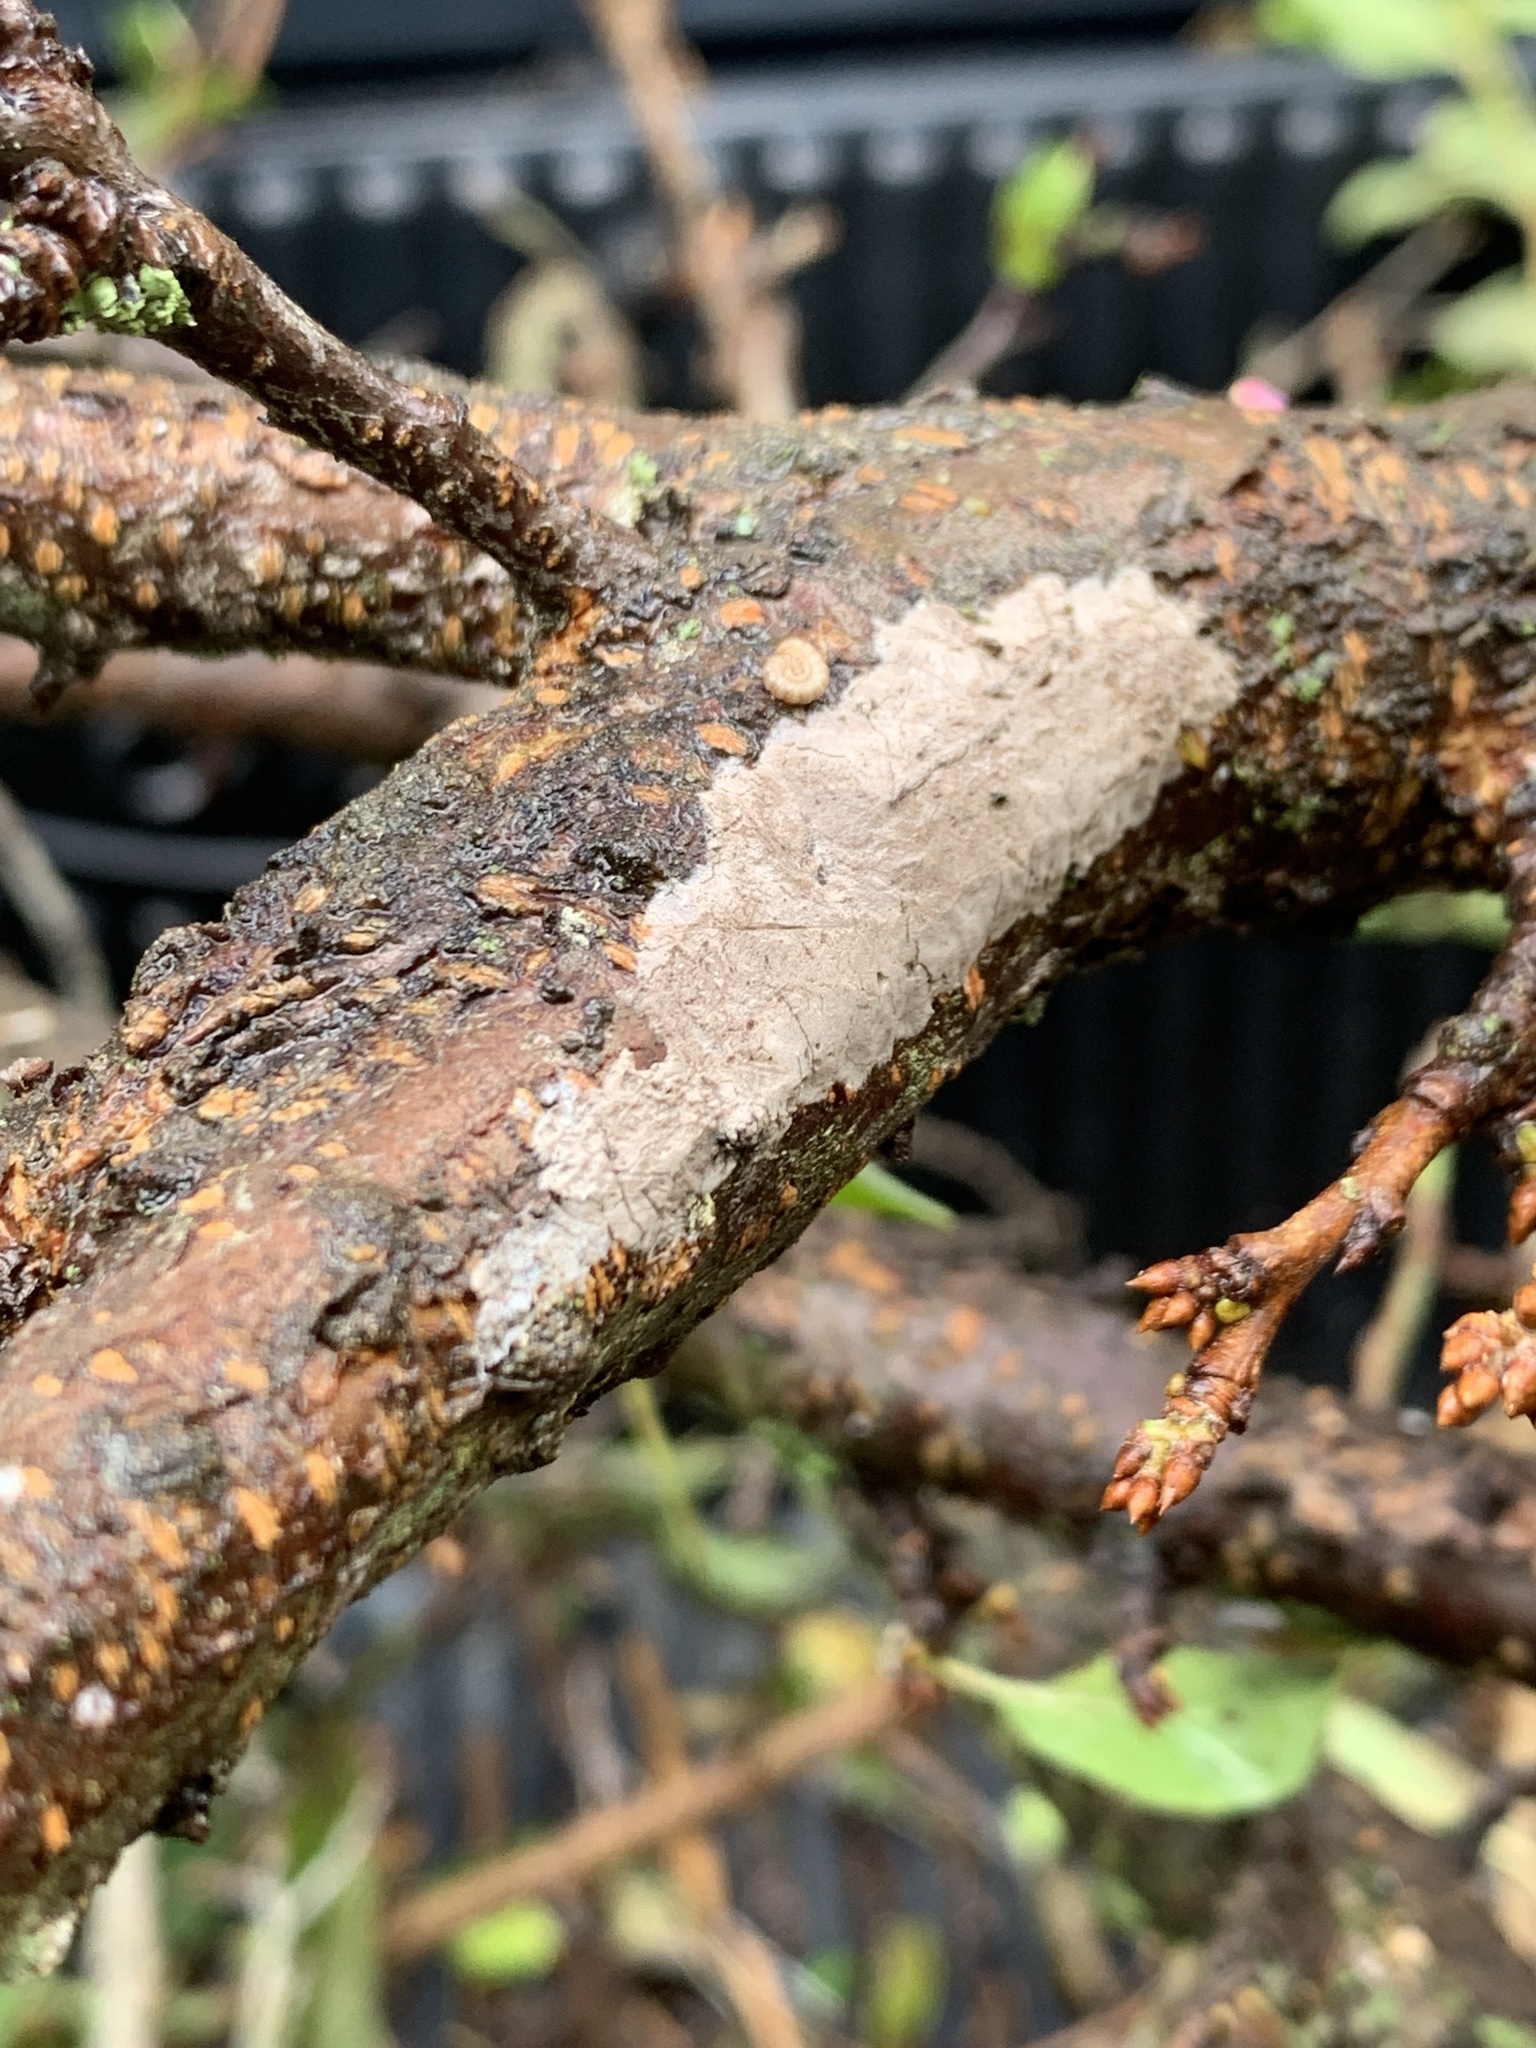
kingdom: Animalia
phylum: Arthropoda
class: Insecta
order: Hemiptera
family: Fulgoridae
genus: Lycorma
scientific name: Lycorma delicatula
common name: Spotted lanternfly
